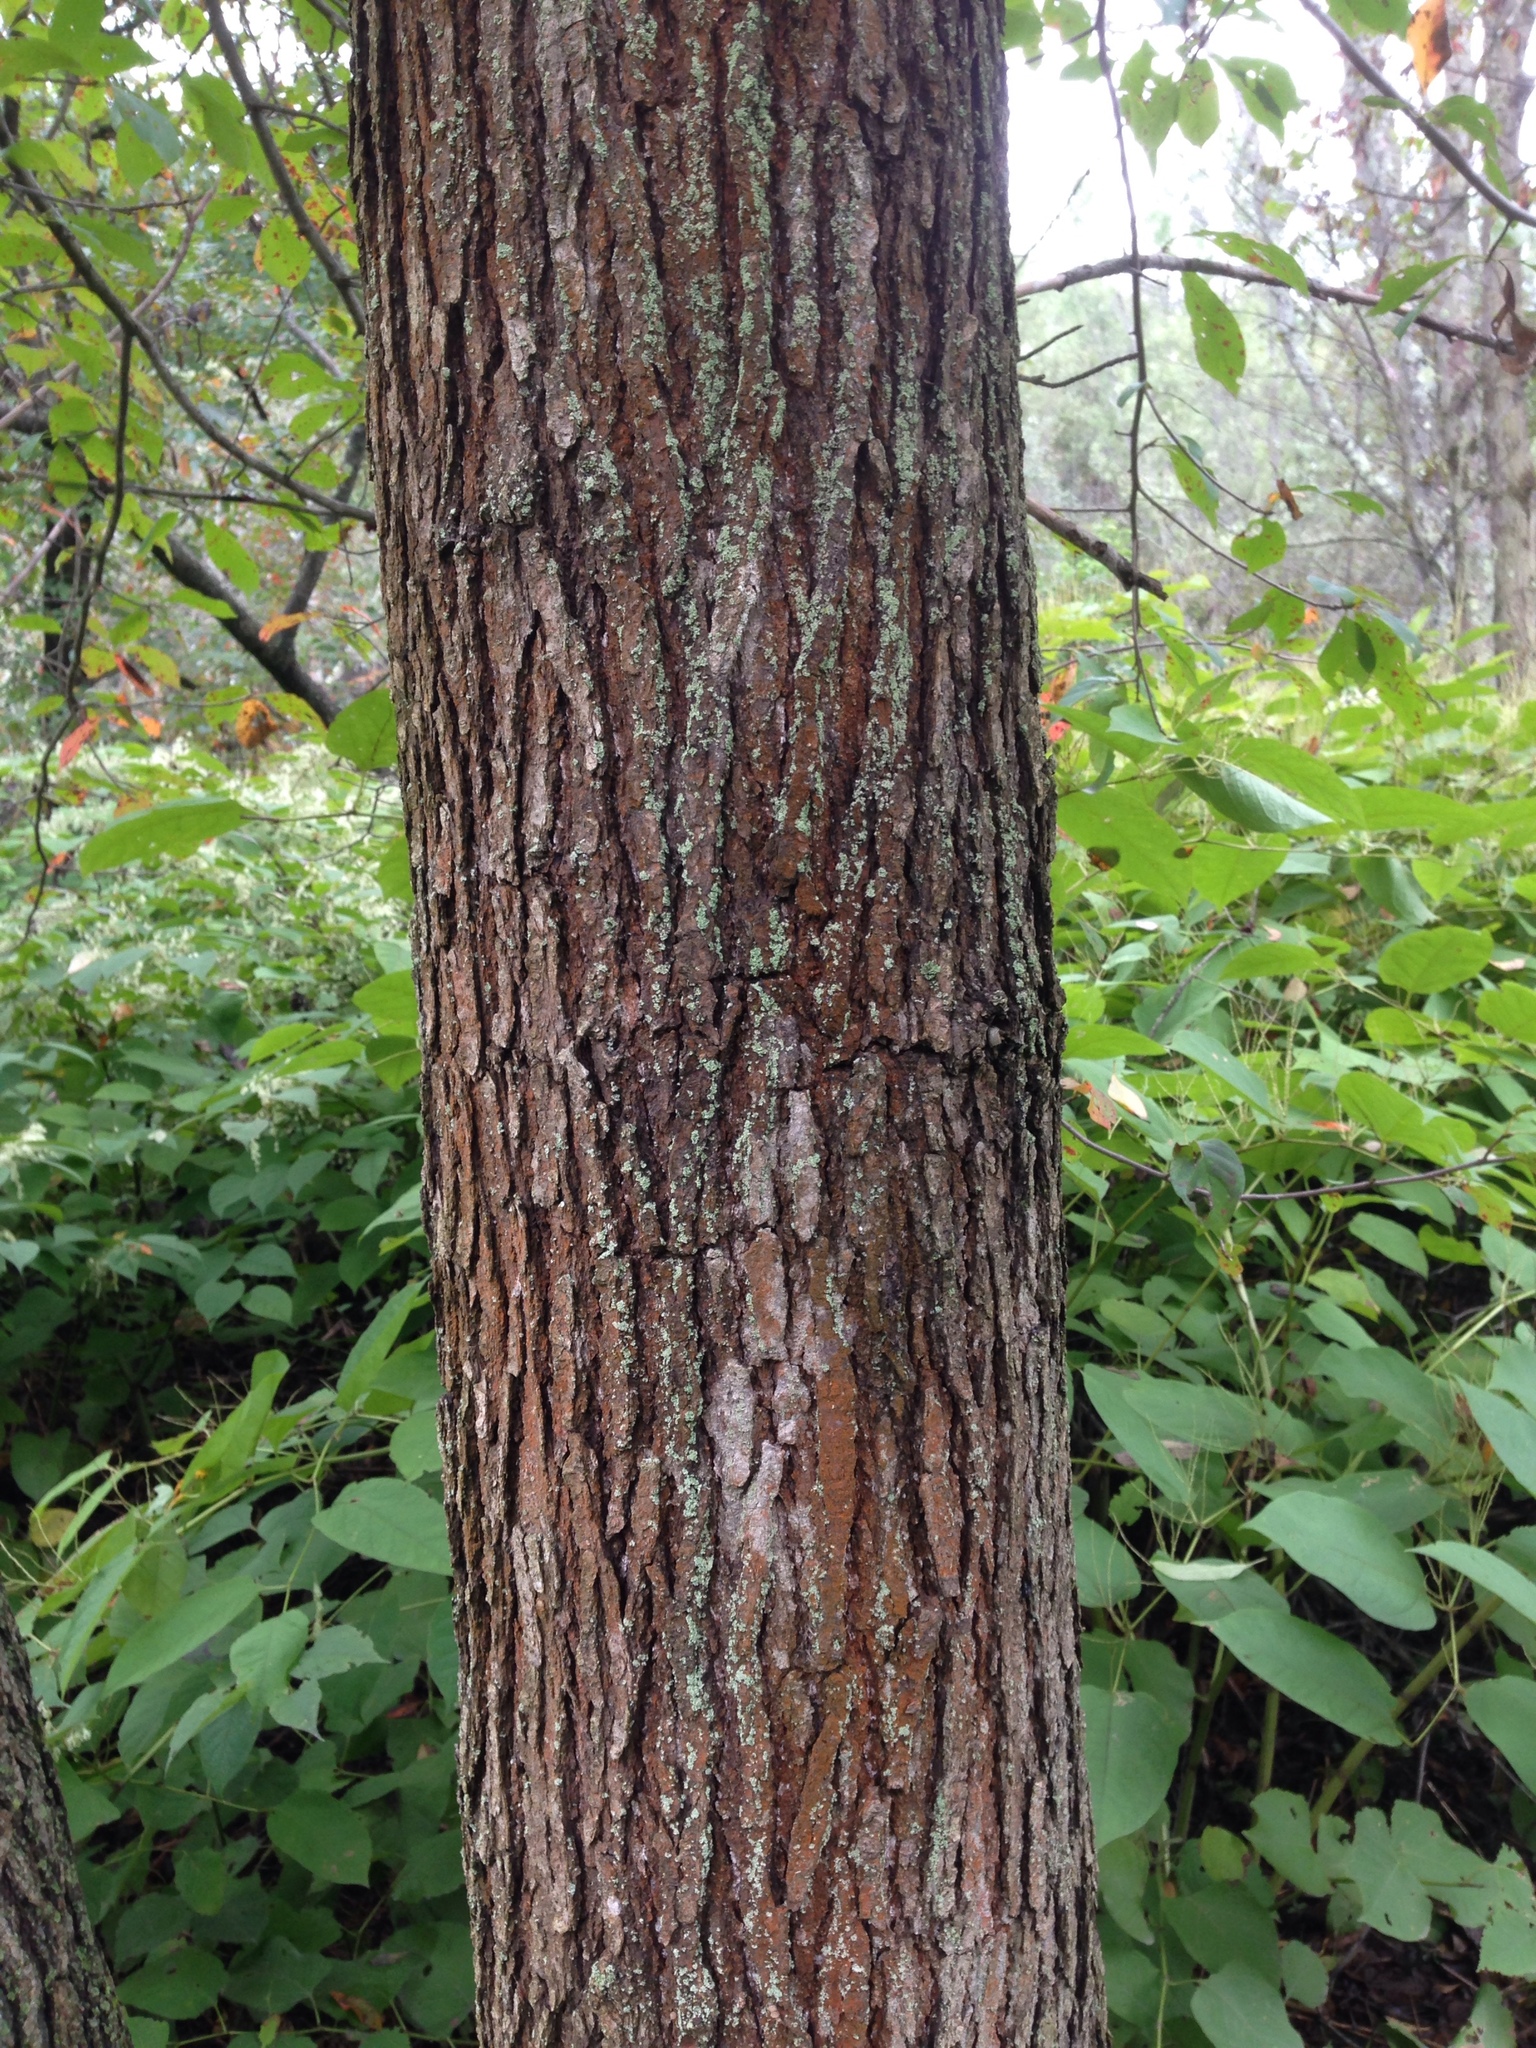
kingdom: Plantae
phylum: Tracheophyta
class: Magnoliopsida
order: Cornales
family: Nyssaceae
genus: Nyssa
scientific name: Nyssa sylvatica
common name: Black tupelo
